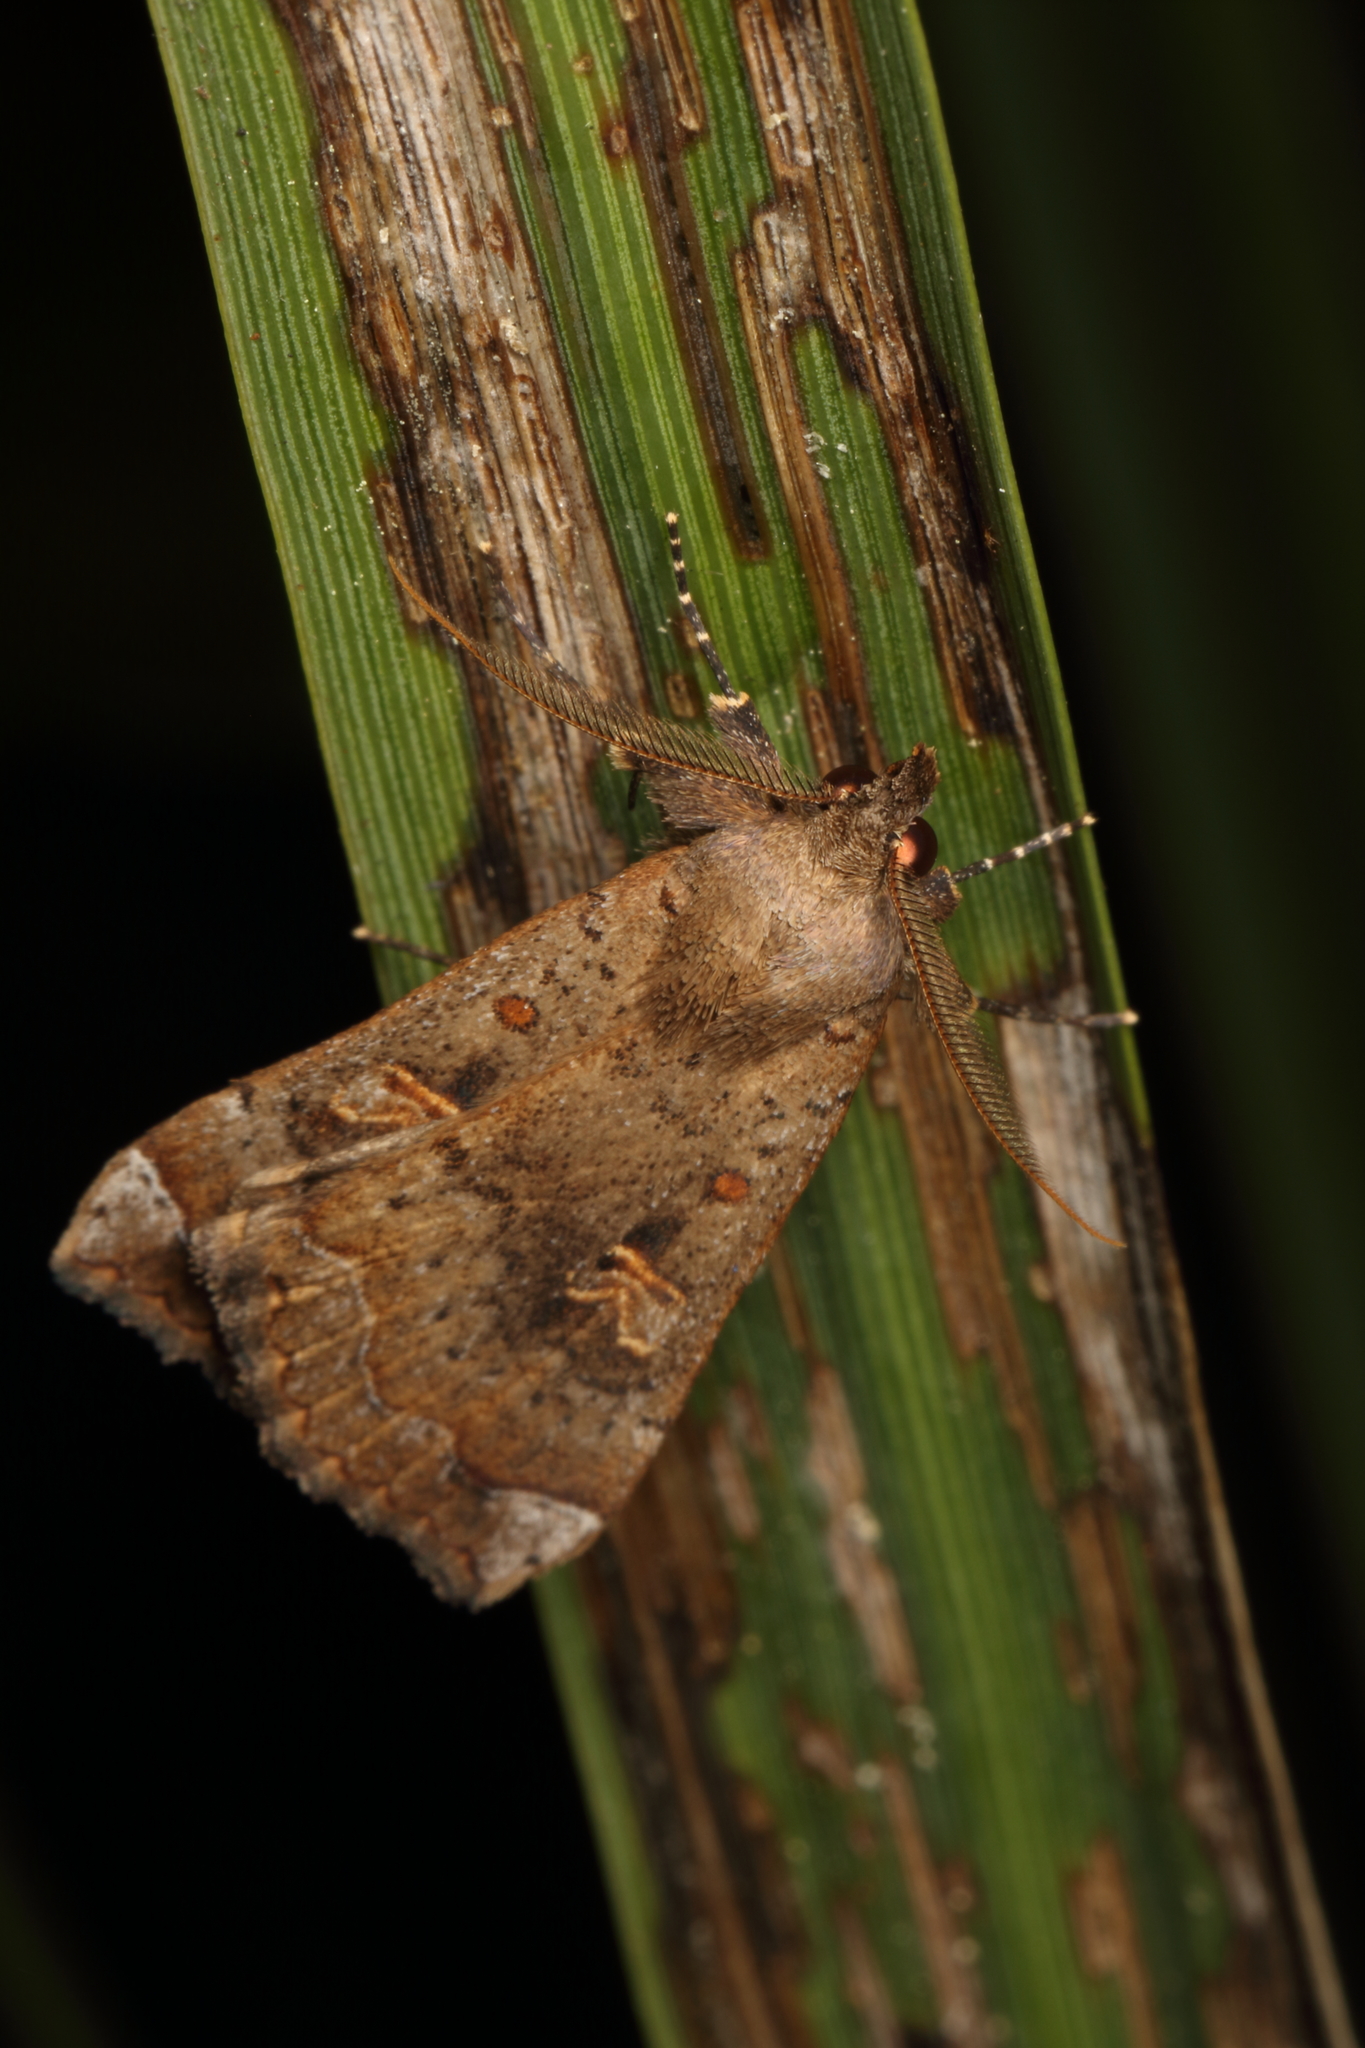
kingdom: Animalia
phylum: Arthropoda
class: Insecta
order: Lepidoptera
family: Erebidae
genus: Rhapsa
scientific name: Rhapsa scotosialis
